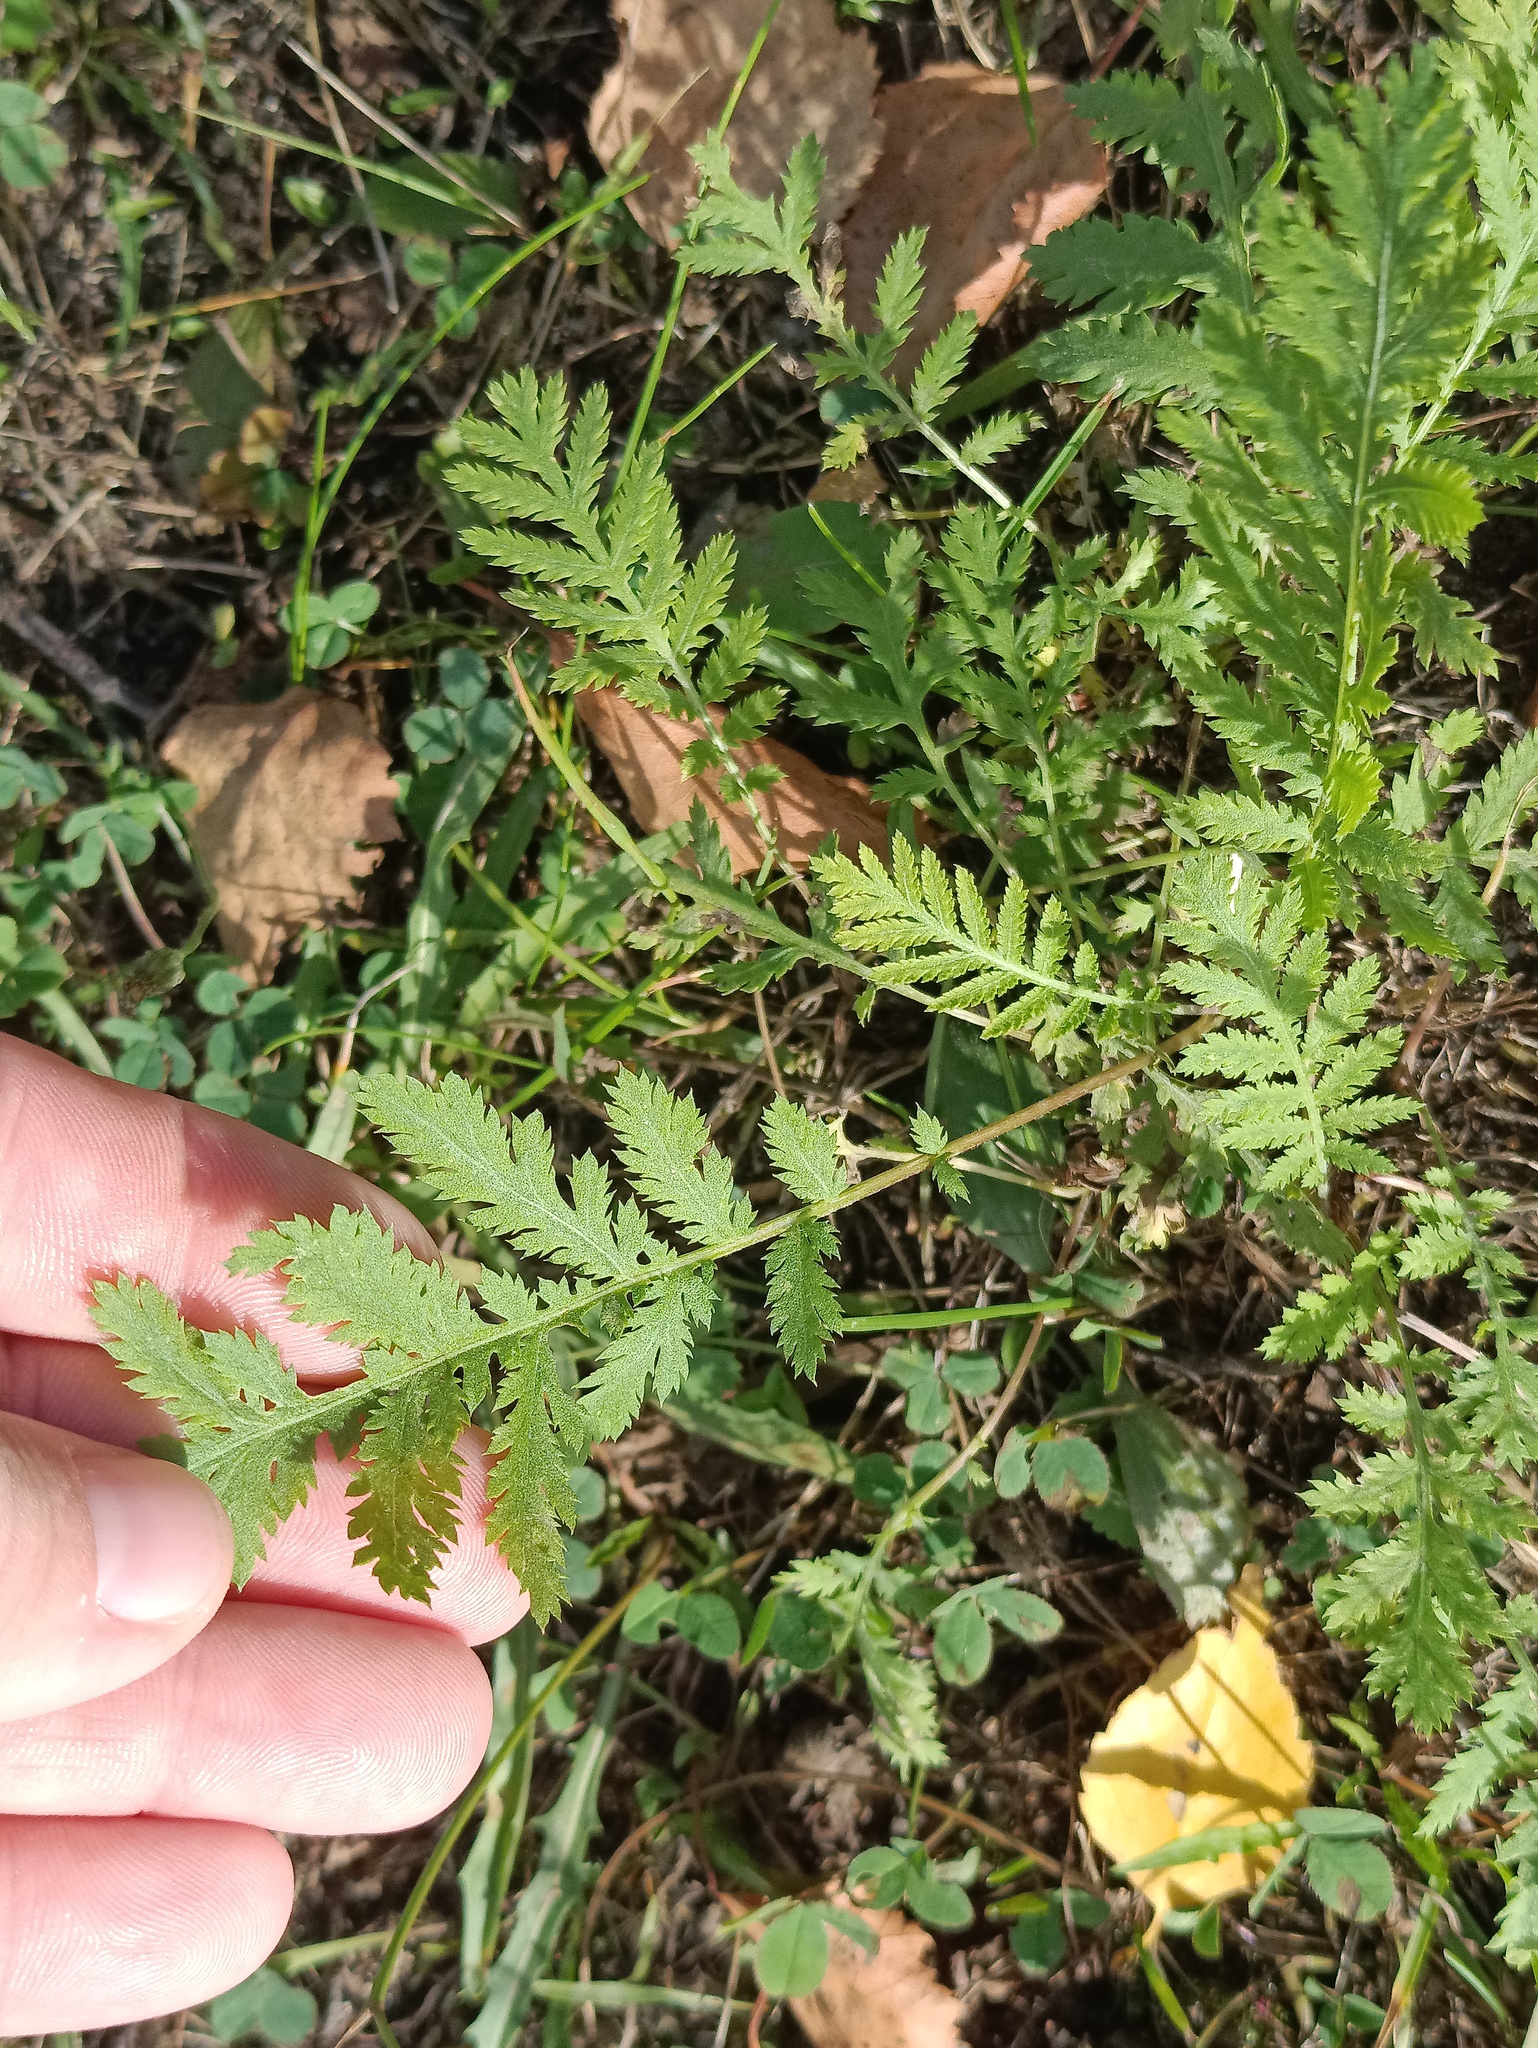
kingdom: Plantae
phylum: Tracheophyta
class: Magnoliopsida
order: Asterales
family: Asteraceae
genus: Tanacetum
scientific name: Tanacetum vulgare
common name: Common tansy
